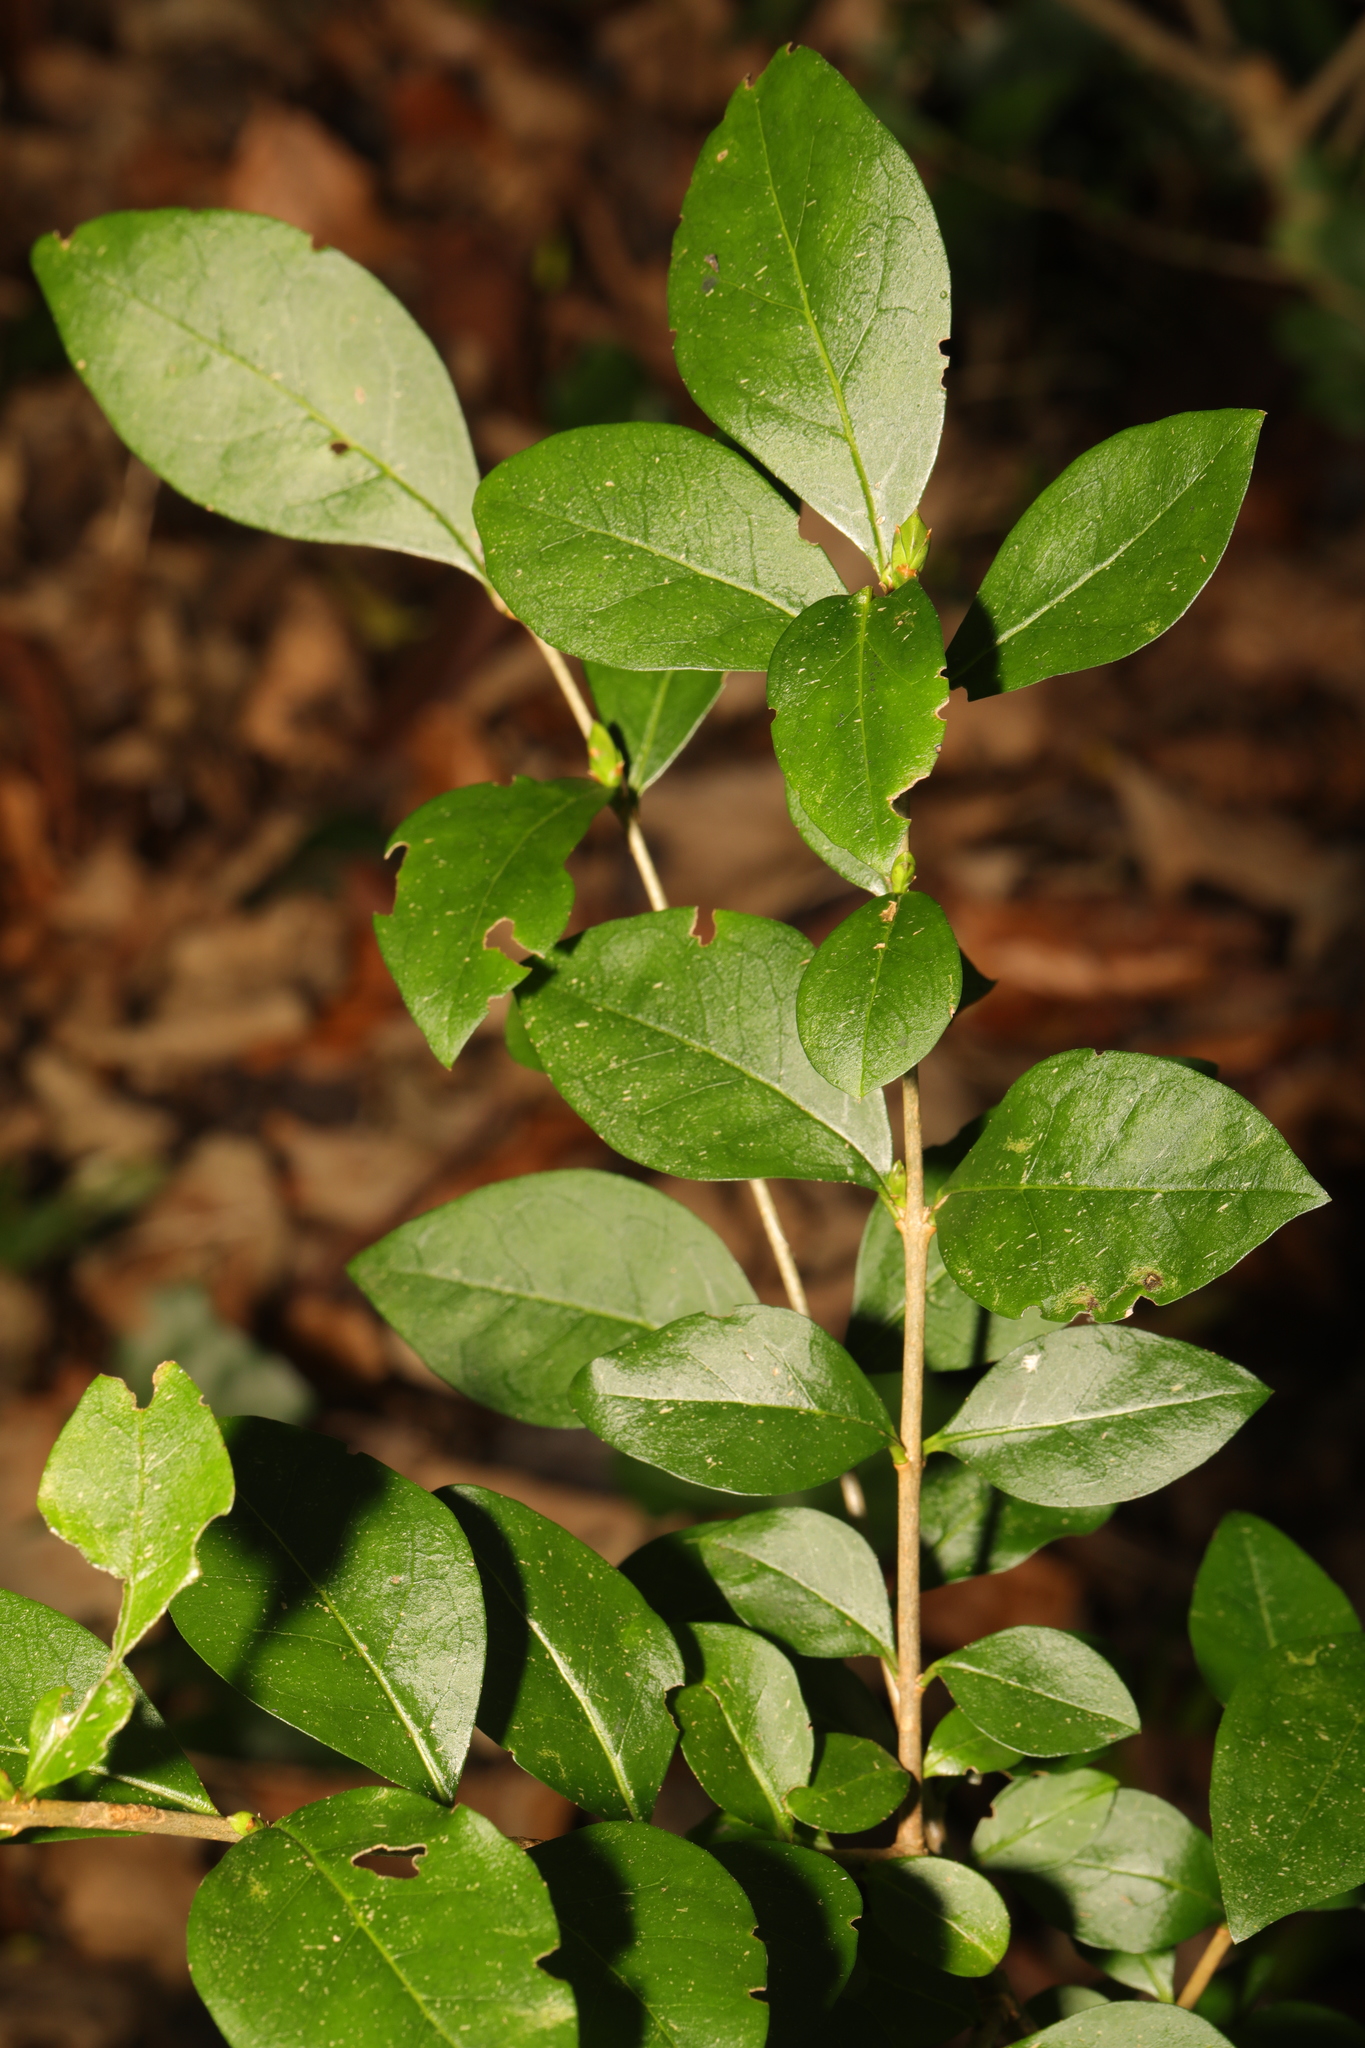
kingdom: Plantae
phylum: Tracheophyta
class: Magnoliopsida
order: Lamiales
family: Oleaceae
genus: Ligustrum
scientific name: Ligustrum ovalifolium
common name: California privet
